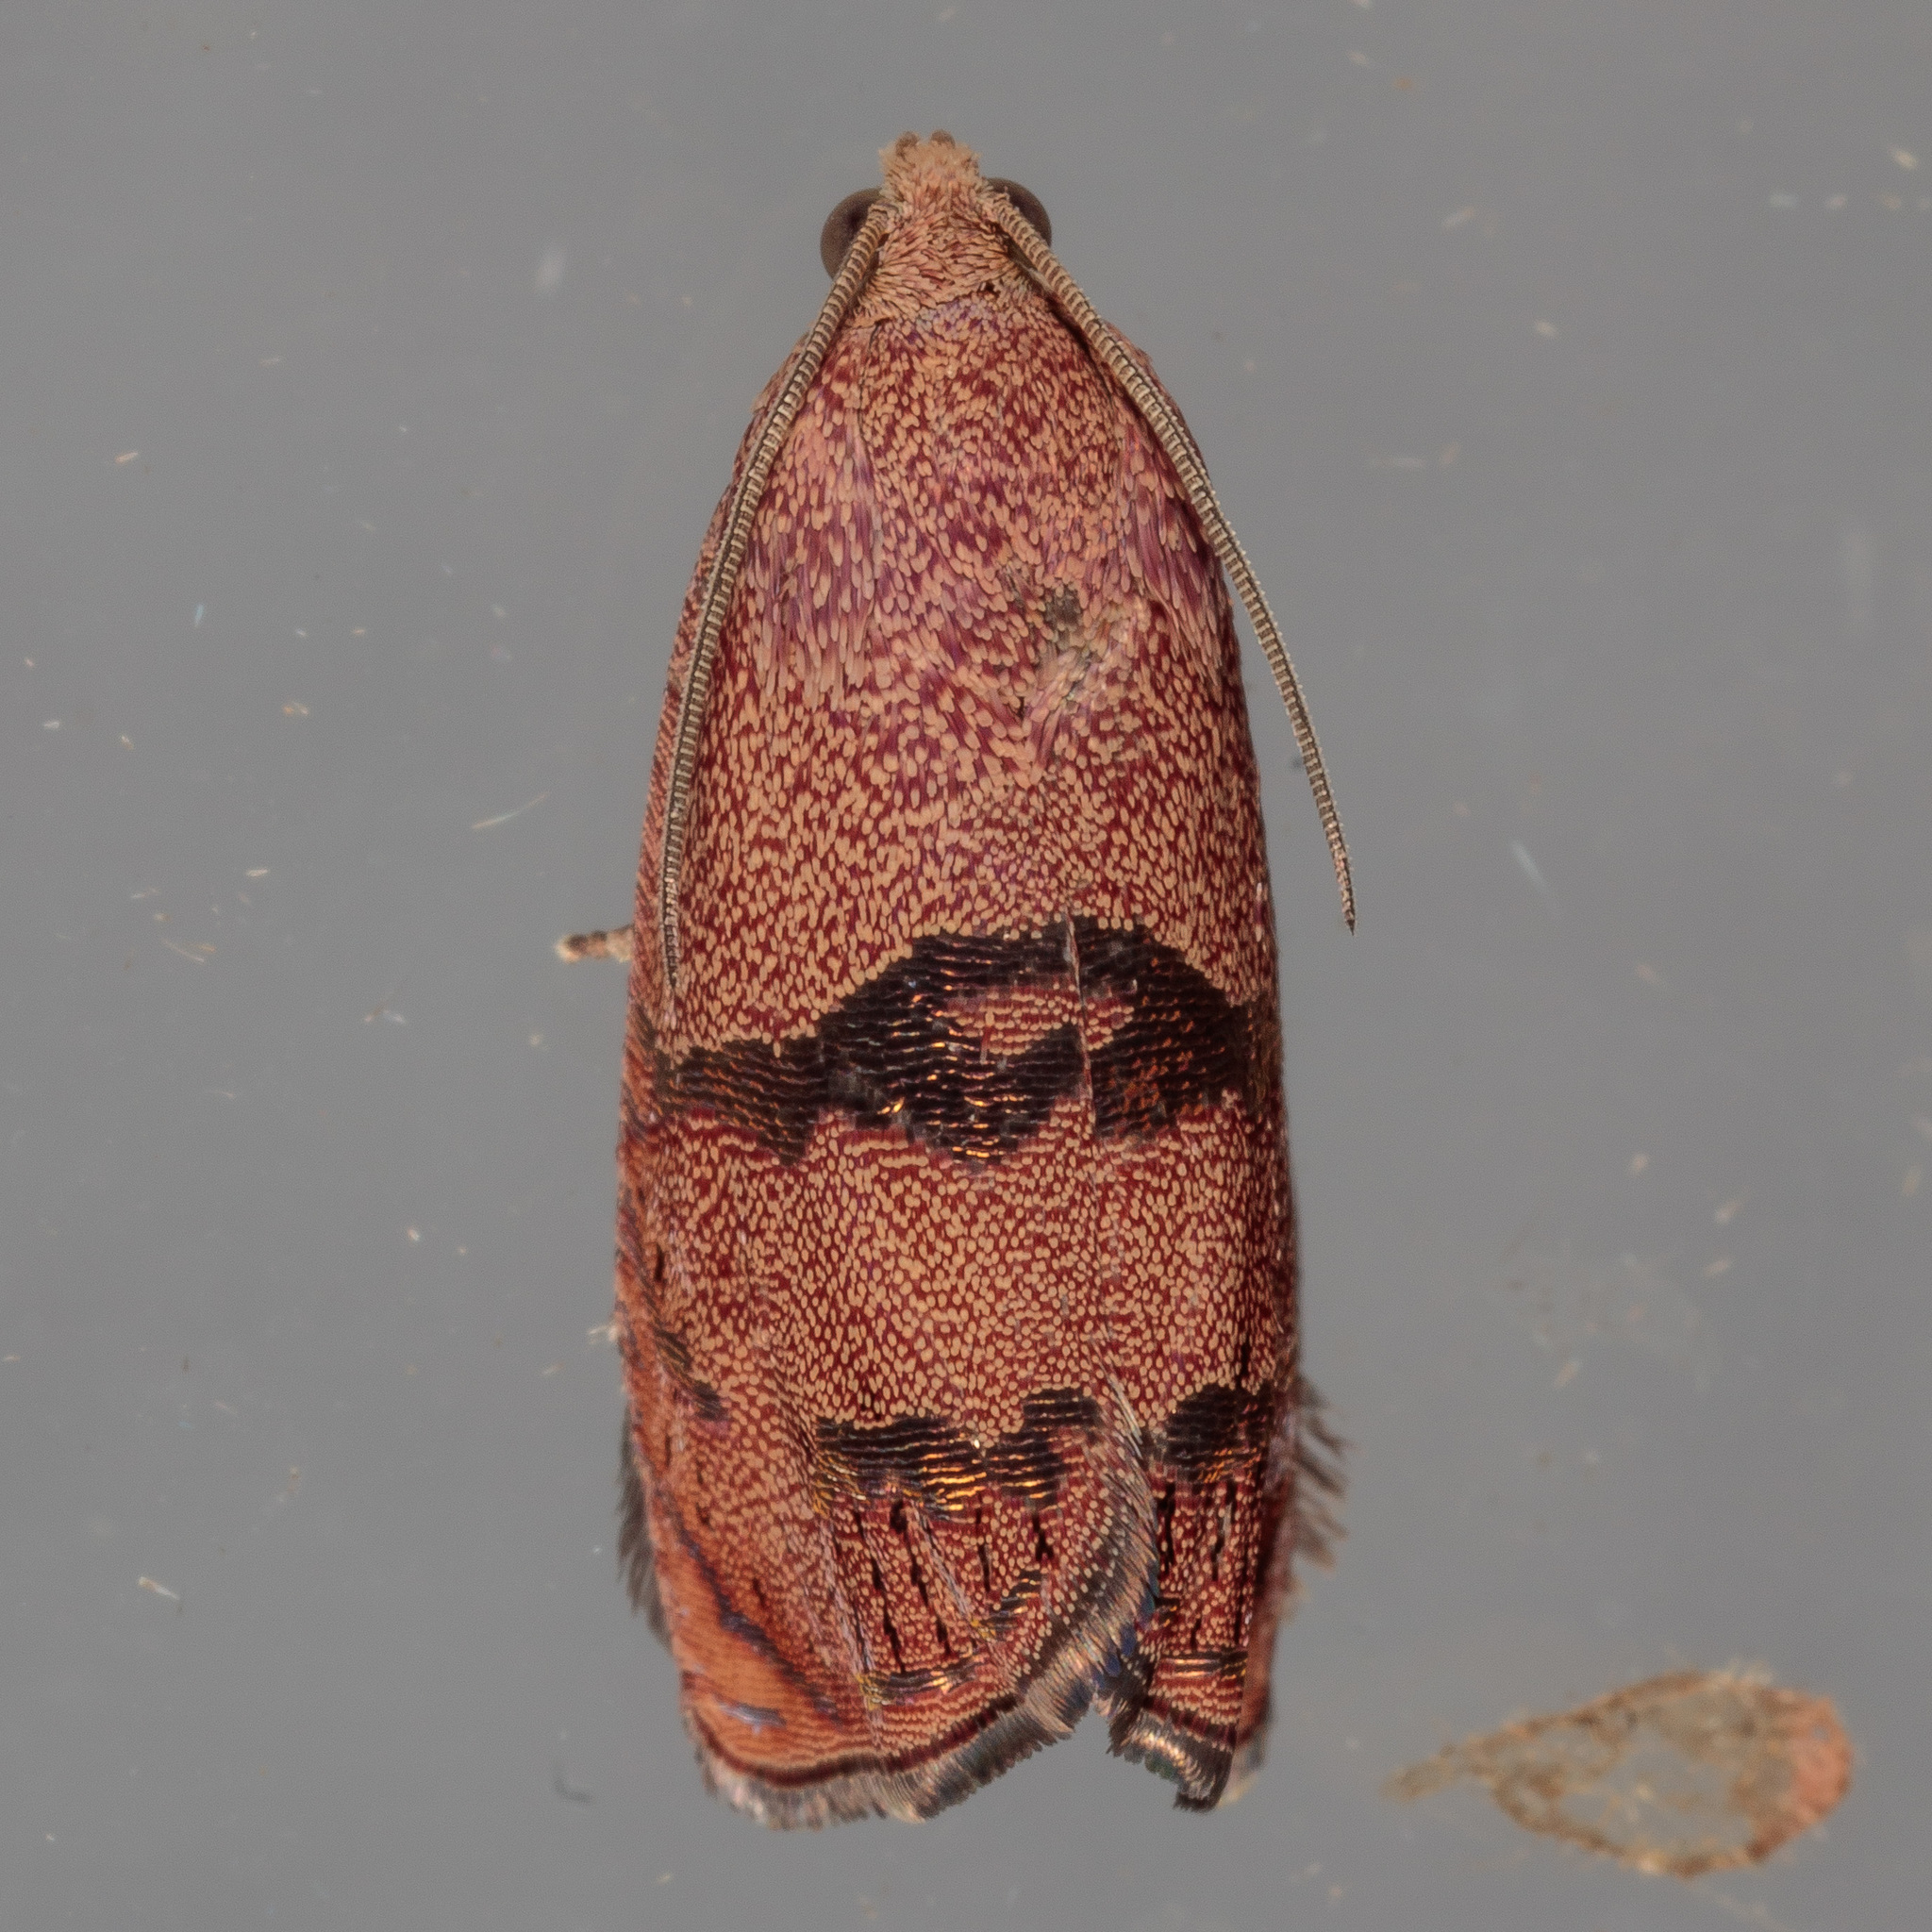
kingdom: Animalia
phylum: Arthropoda
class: Insecta
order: Lepidoptera
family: Tortricidae
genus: Cydia
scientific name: Cydia latiferreana
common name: Filbertworm moth
